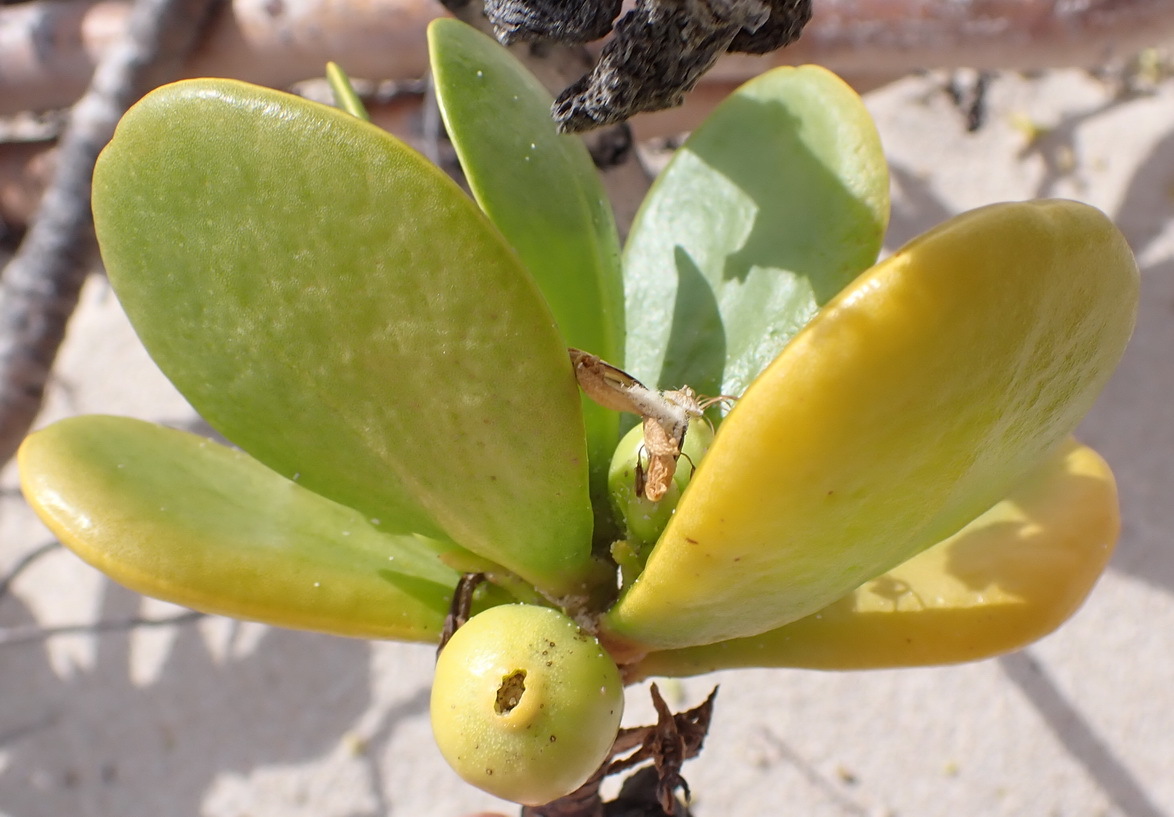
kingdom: Plantae
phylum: Tracheophyta
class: Magnoliopsida
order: Asterales
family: Goodeniaceae
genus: Scaevola
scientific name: Scaevola plumieri
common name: Gull feed
